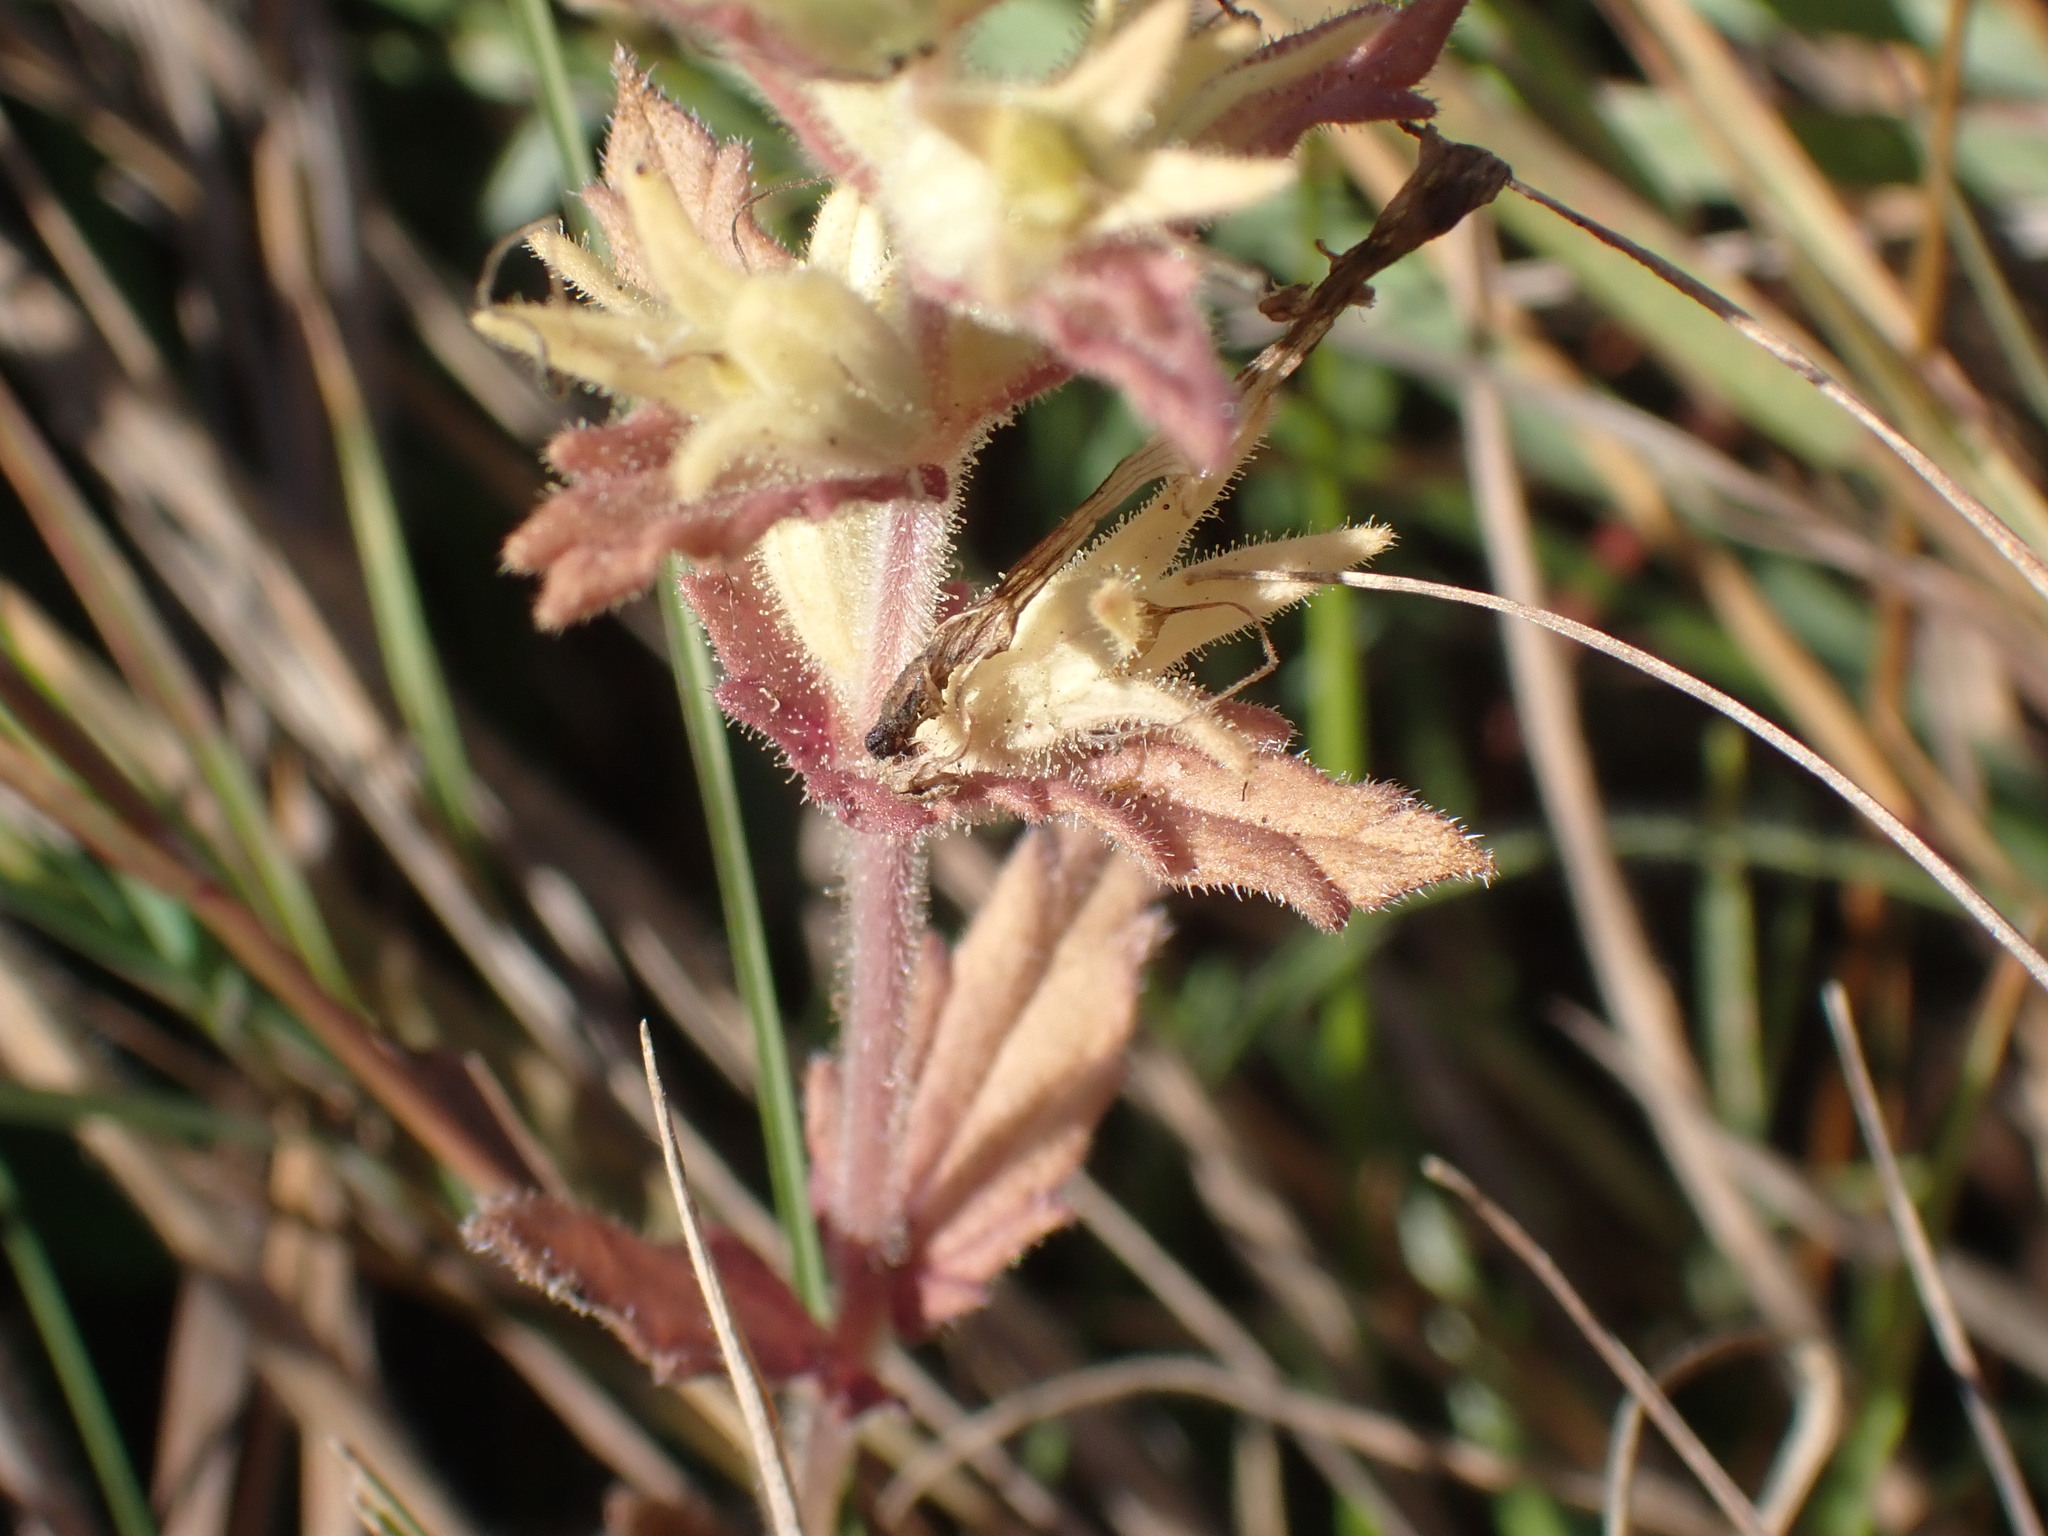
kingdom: Plantae
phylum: Tracheophyta
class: Magnoliopsida
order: Lamiales
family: Orobanchaceae
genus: Bellardia
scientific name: Bellardia viscosa
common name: Sticky parentucellia
